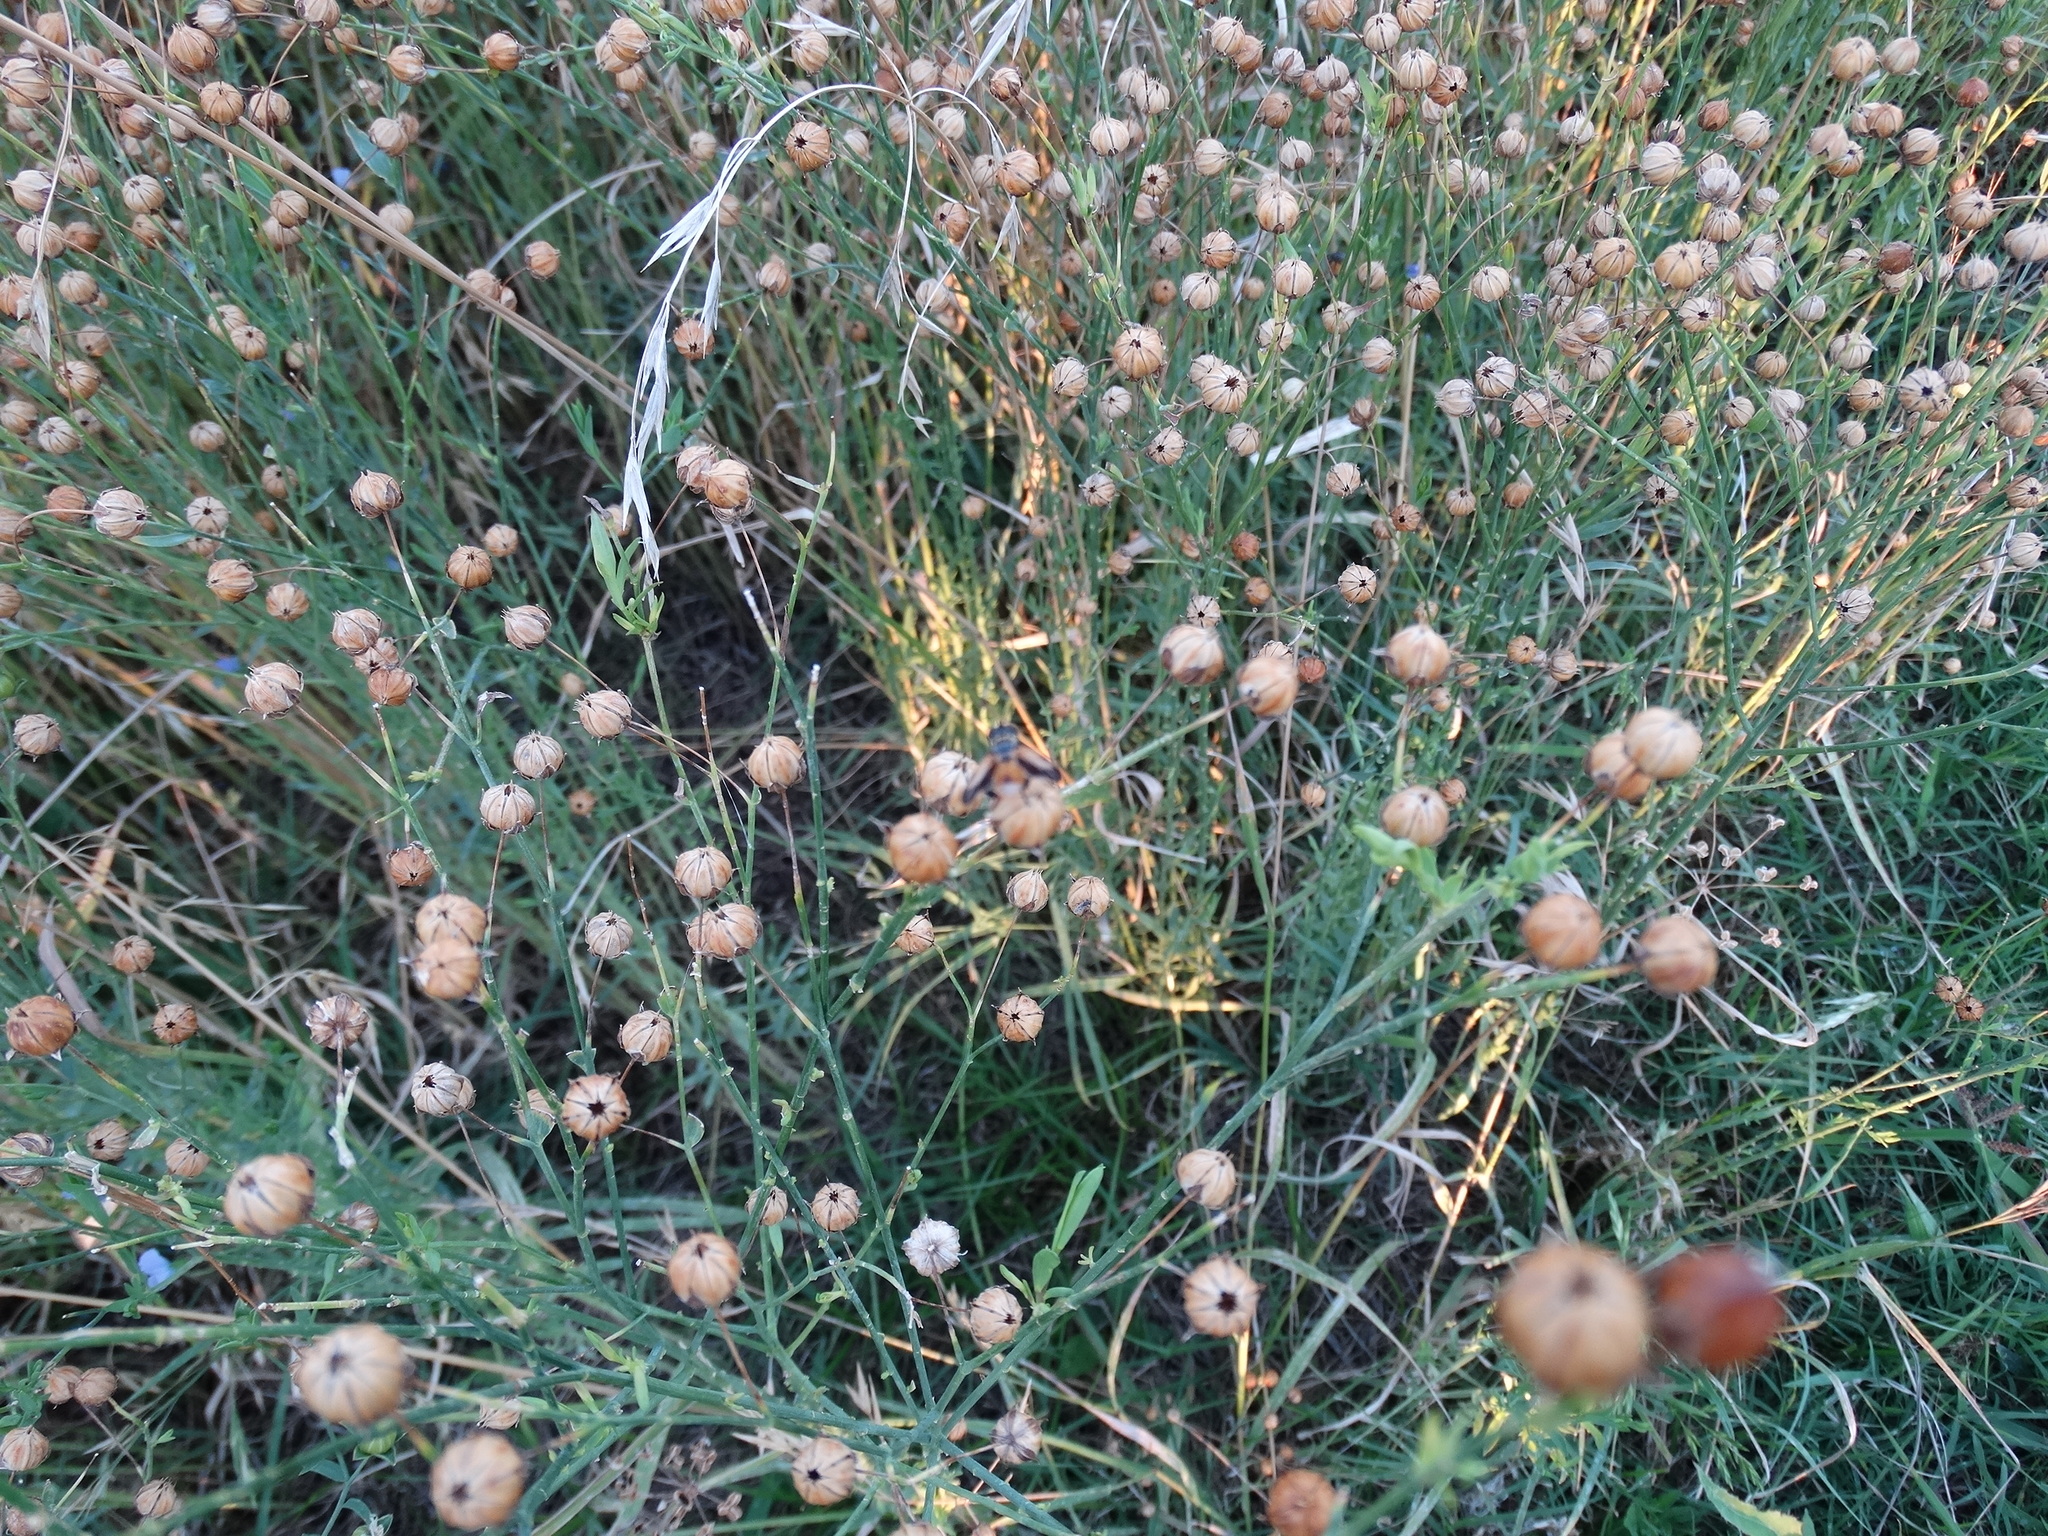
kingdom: Plantae
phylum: Tracheophyta
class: Magnoliopsida
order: Malpighiales
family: Linaceae
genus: Linum
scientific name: Linum usitatissimum
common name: Flax
